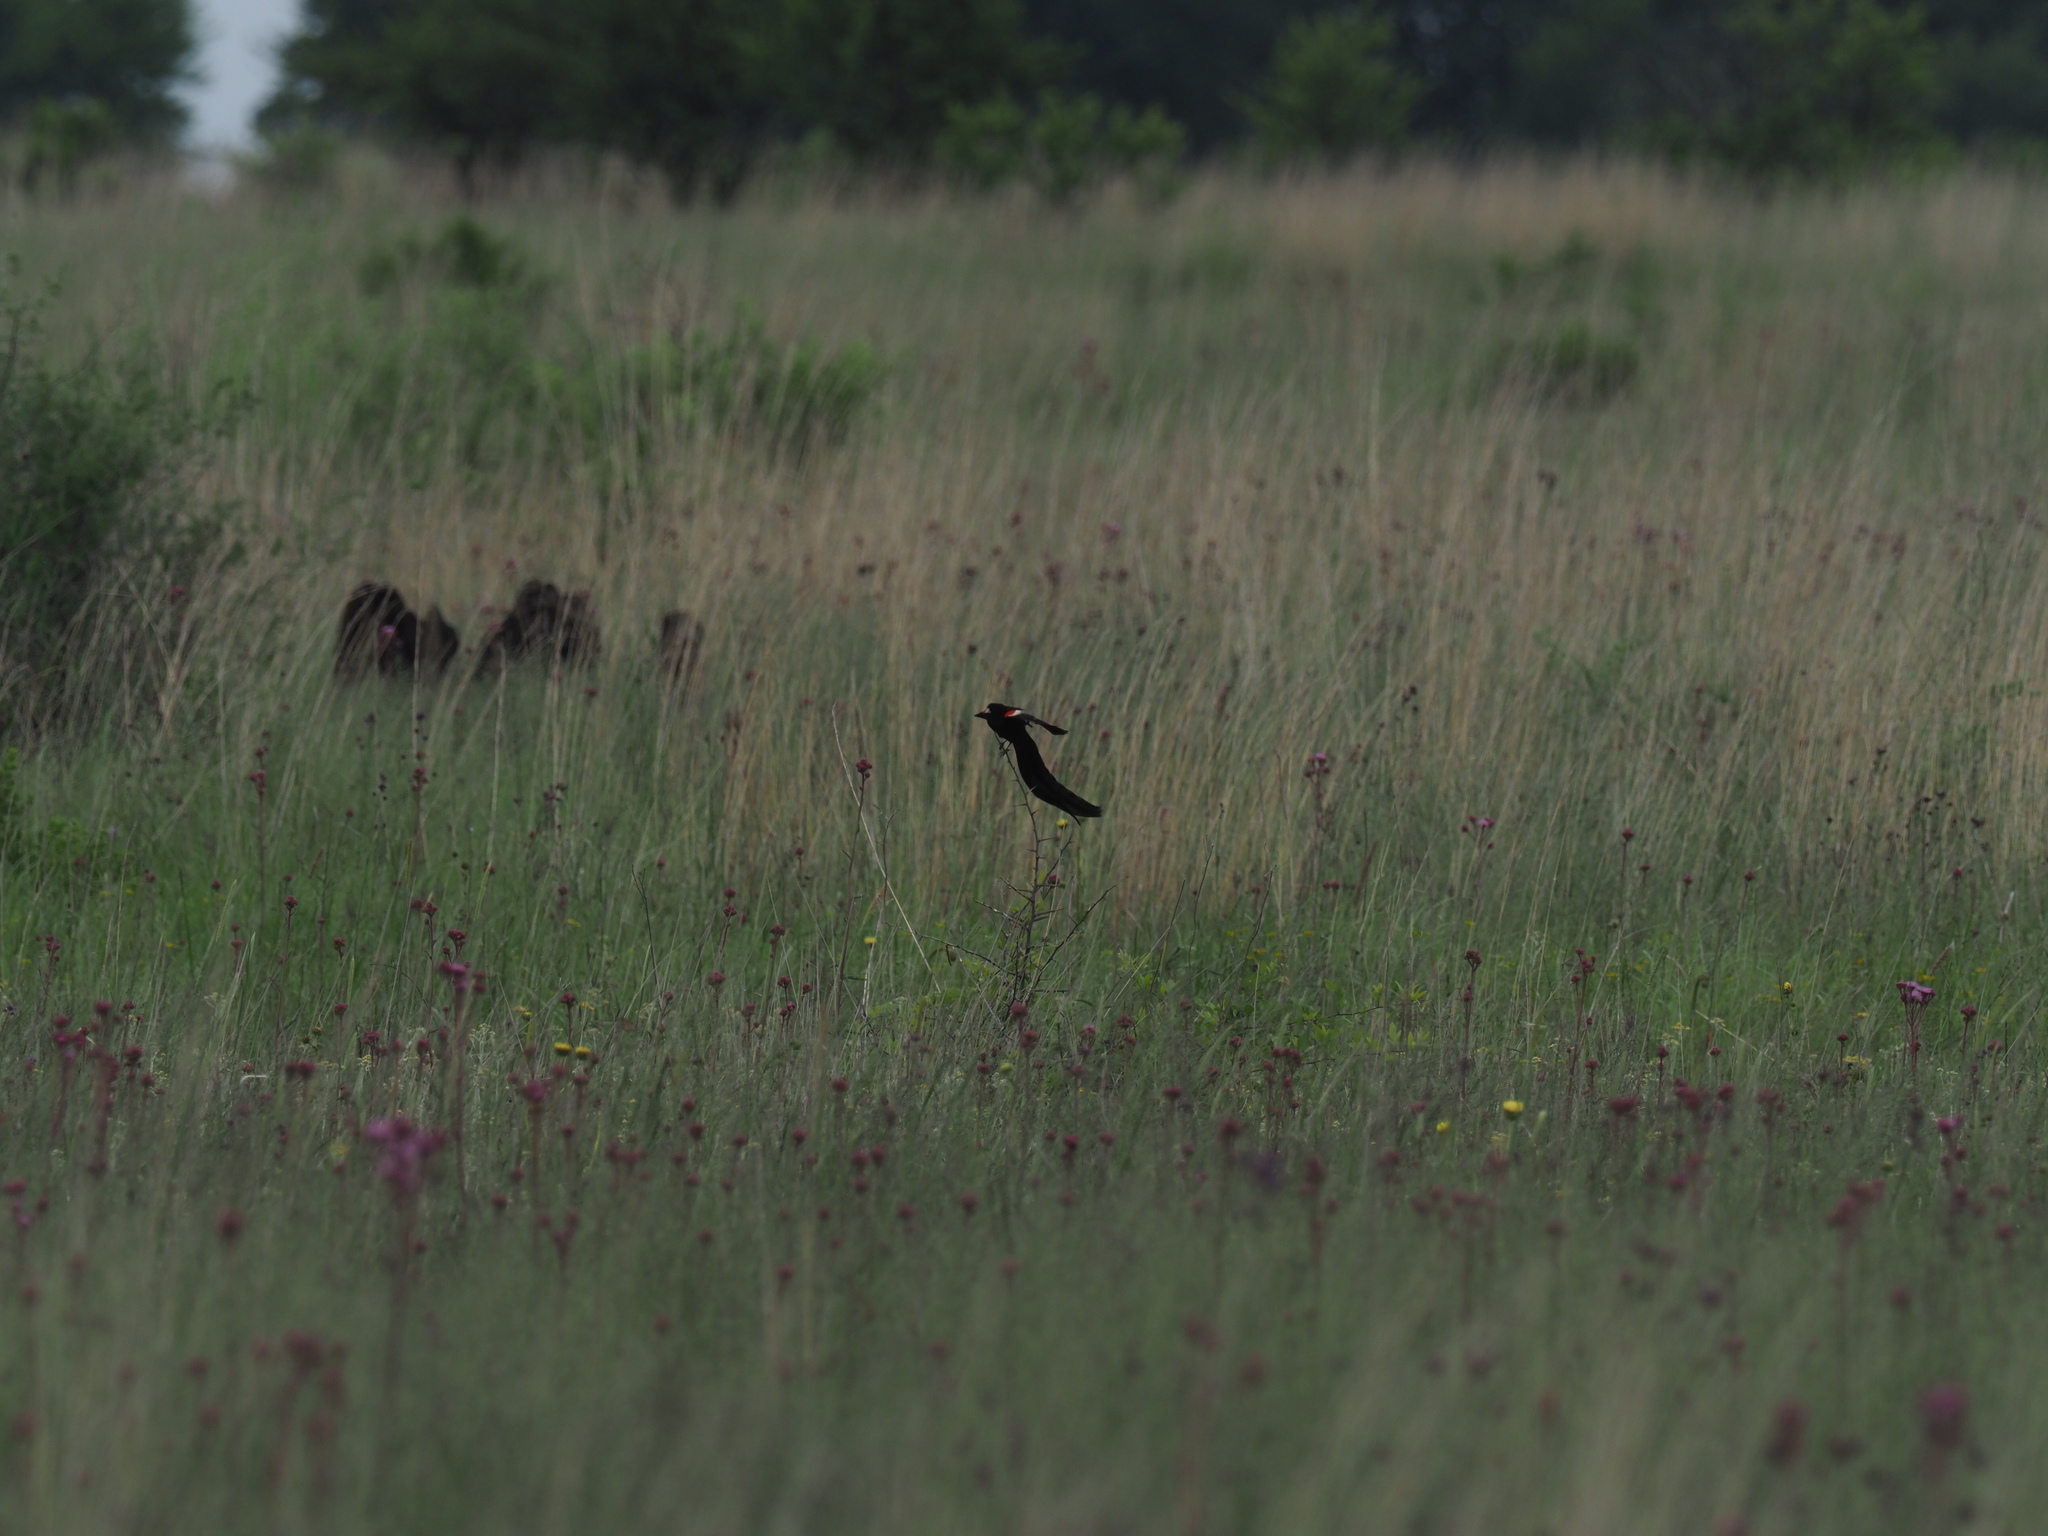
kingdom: Animalia
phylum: Chordata
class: Aves
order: Passeriformes
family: Ploceidae
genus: Euplectes
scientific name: Euplectes progne
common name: Long-tailed widowbird
